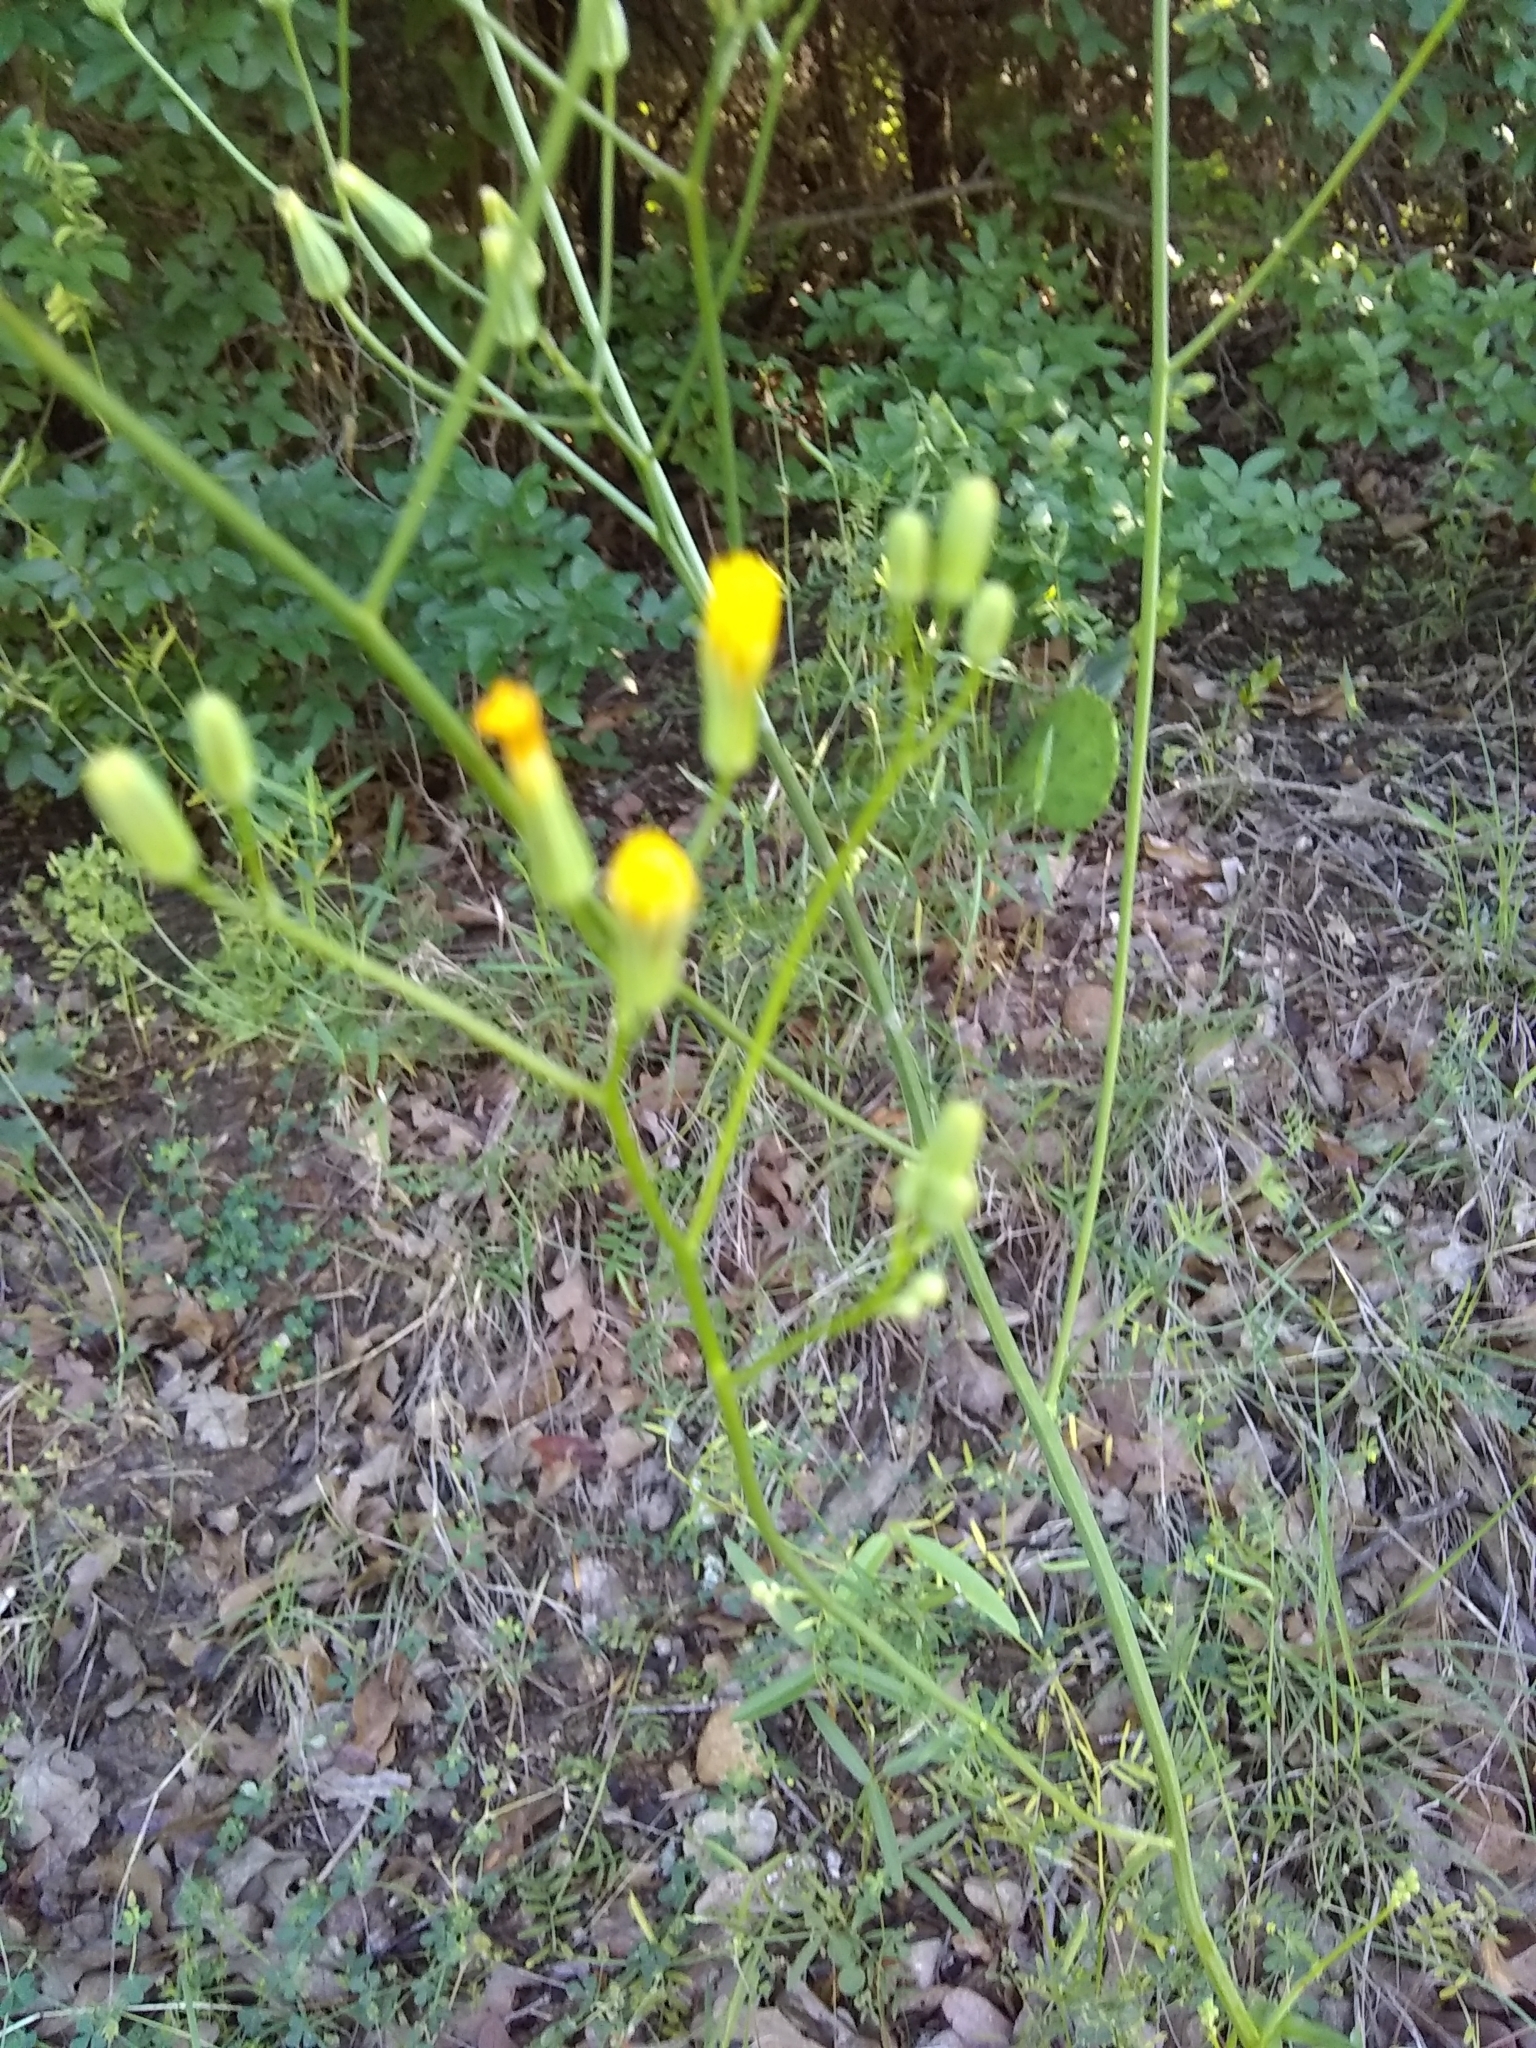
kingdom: Plantae
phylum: Tracheophyta
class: Magnoliopsida
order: Asterales
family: Asteraceae
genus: Youngia
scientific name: Youngia japonica
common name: Oriental false hawksbeard
